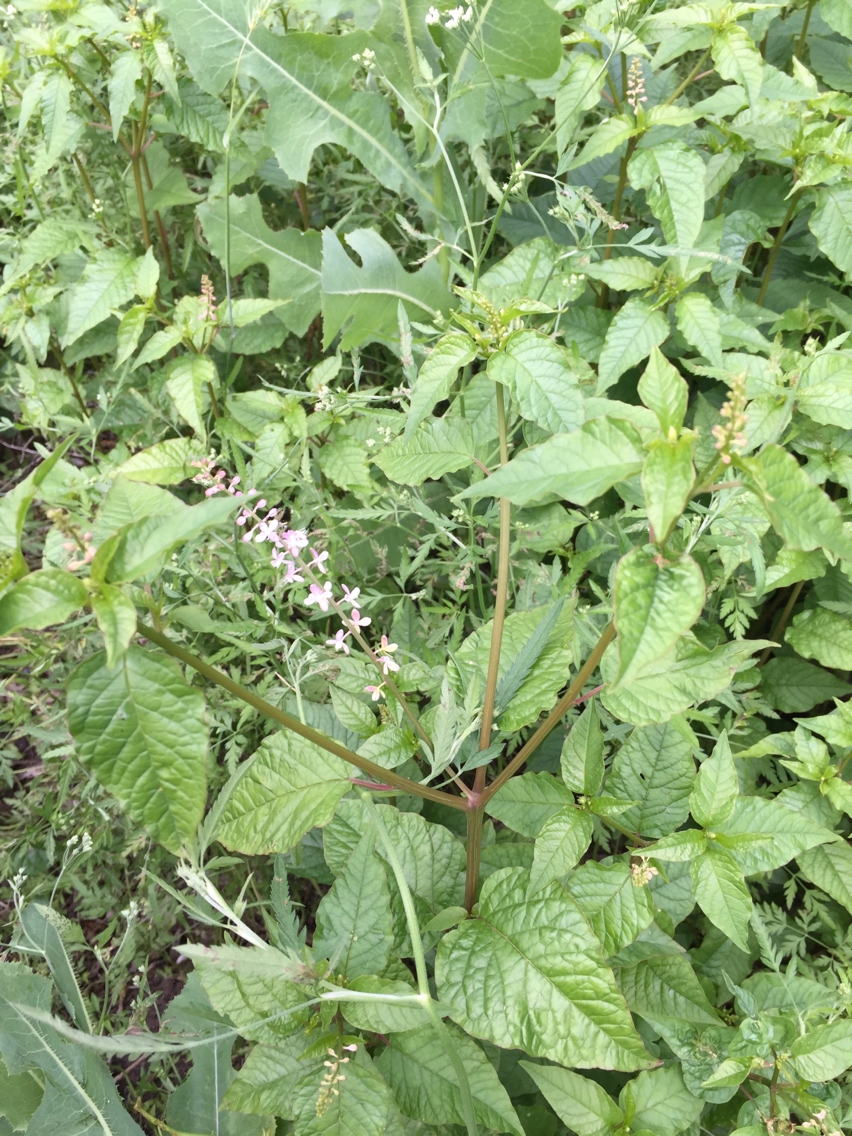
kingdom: Plantae
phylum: Tracheophyta
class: Magnoliopsida
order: Caryophyllales
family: Phytolaccaceae
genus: Rivina
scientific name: Rivina humilis
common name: Rougeplant
